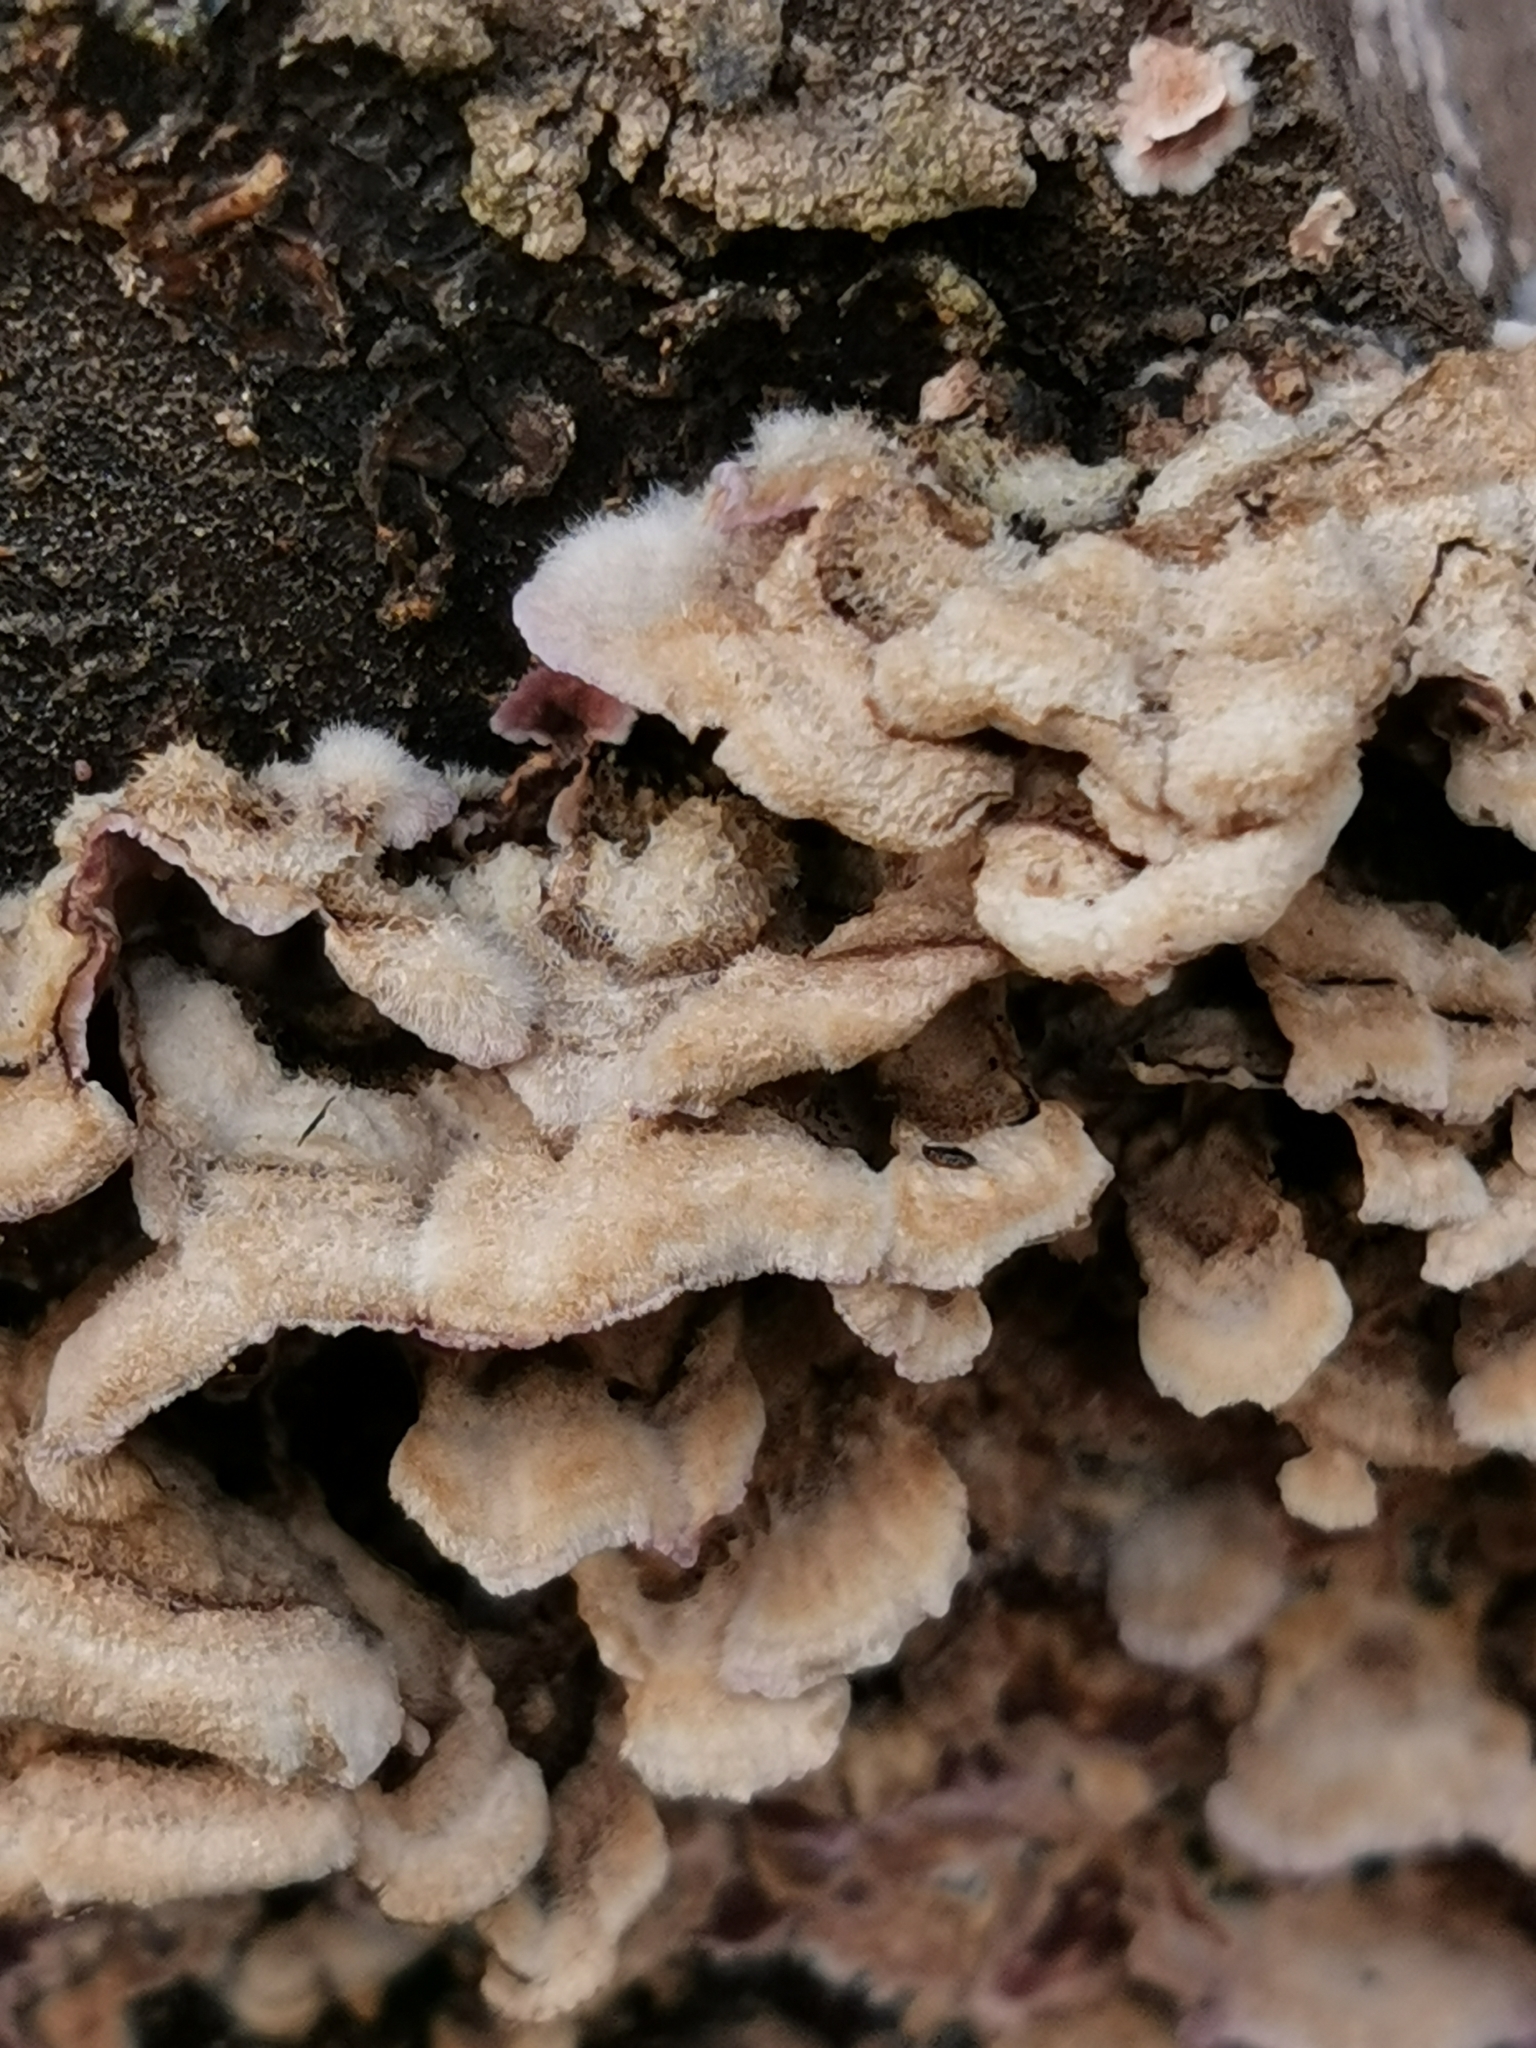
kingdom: Fungi
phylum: Basidiomycota
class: Agaricomycetes
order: Agaricales
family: Cyphellaceae
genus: Chondrostereum
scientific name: Chondrostereum purpureum
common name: Silver leaf disease
